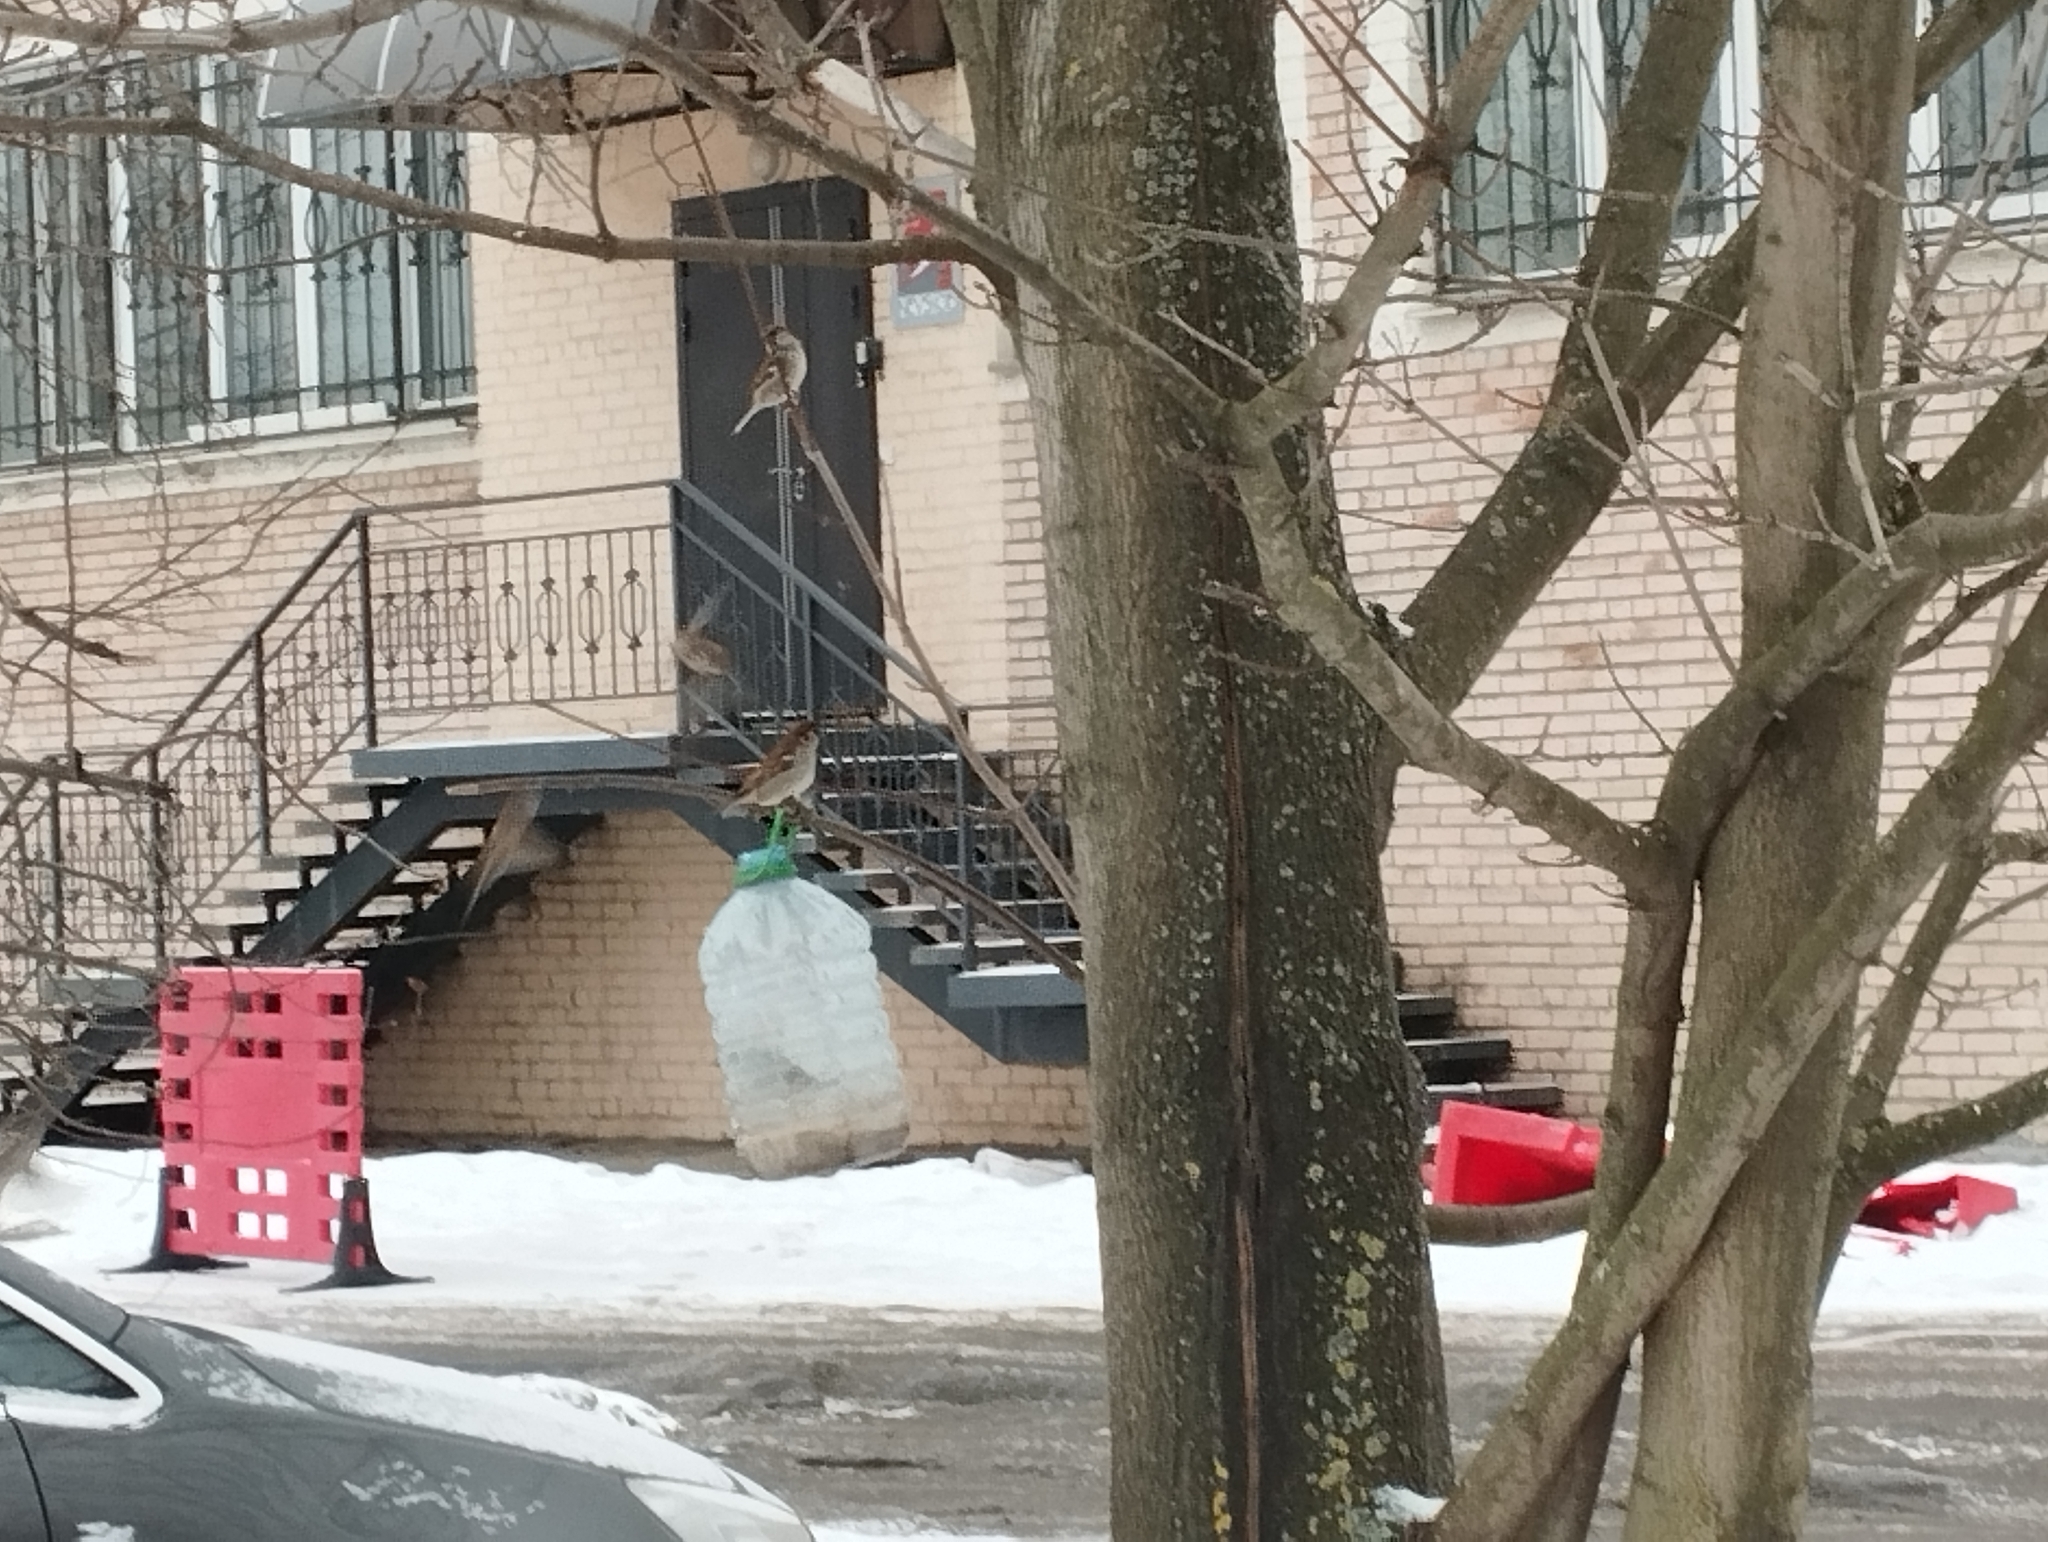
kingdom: Animalia
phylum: Chordata
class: Aves
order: Passeriformes
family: Passeridae
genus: Passer
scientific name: Passer montanus
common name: Eurasian tree sparrow
